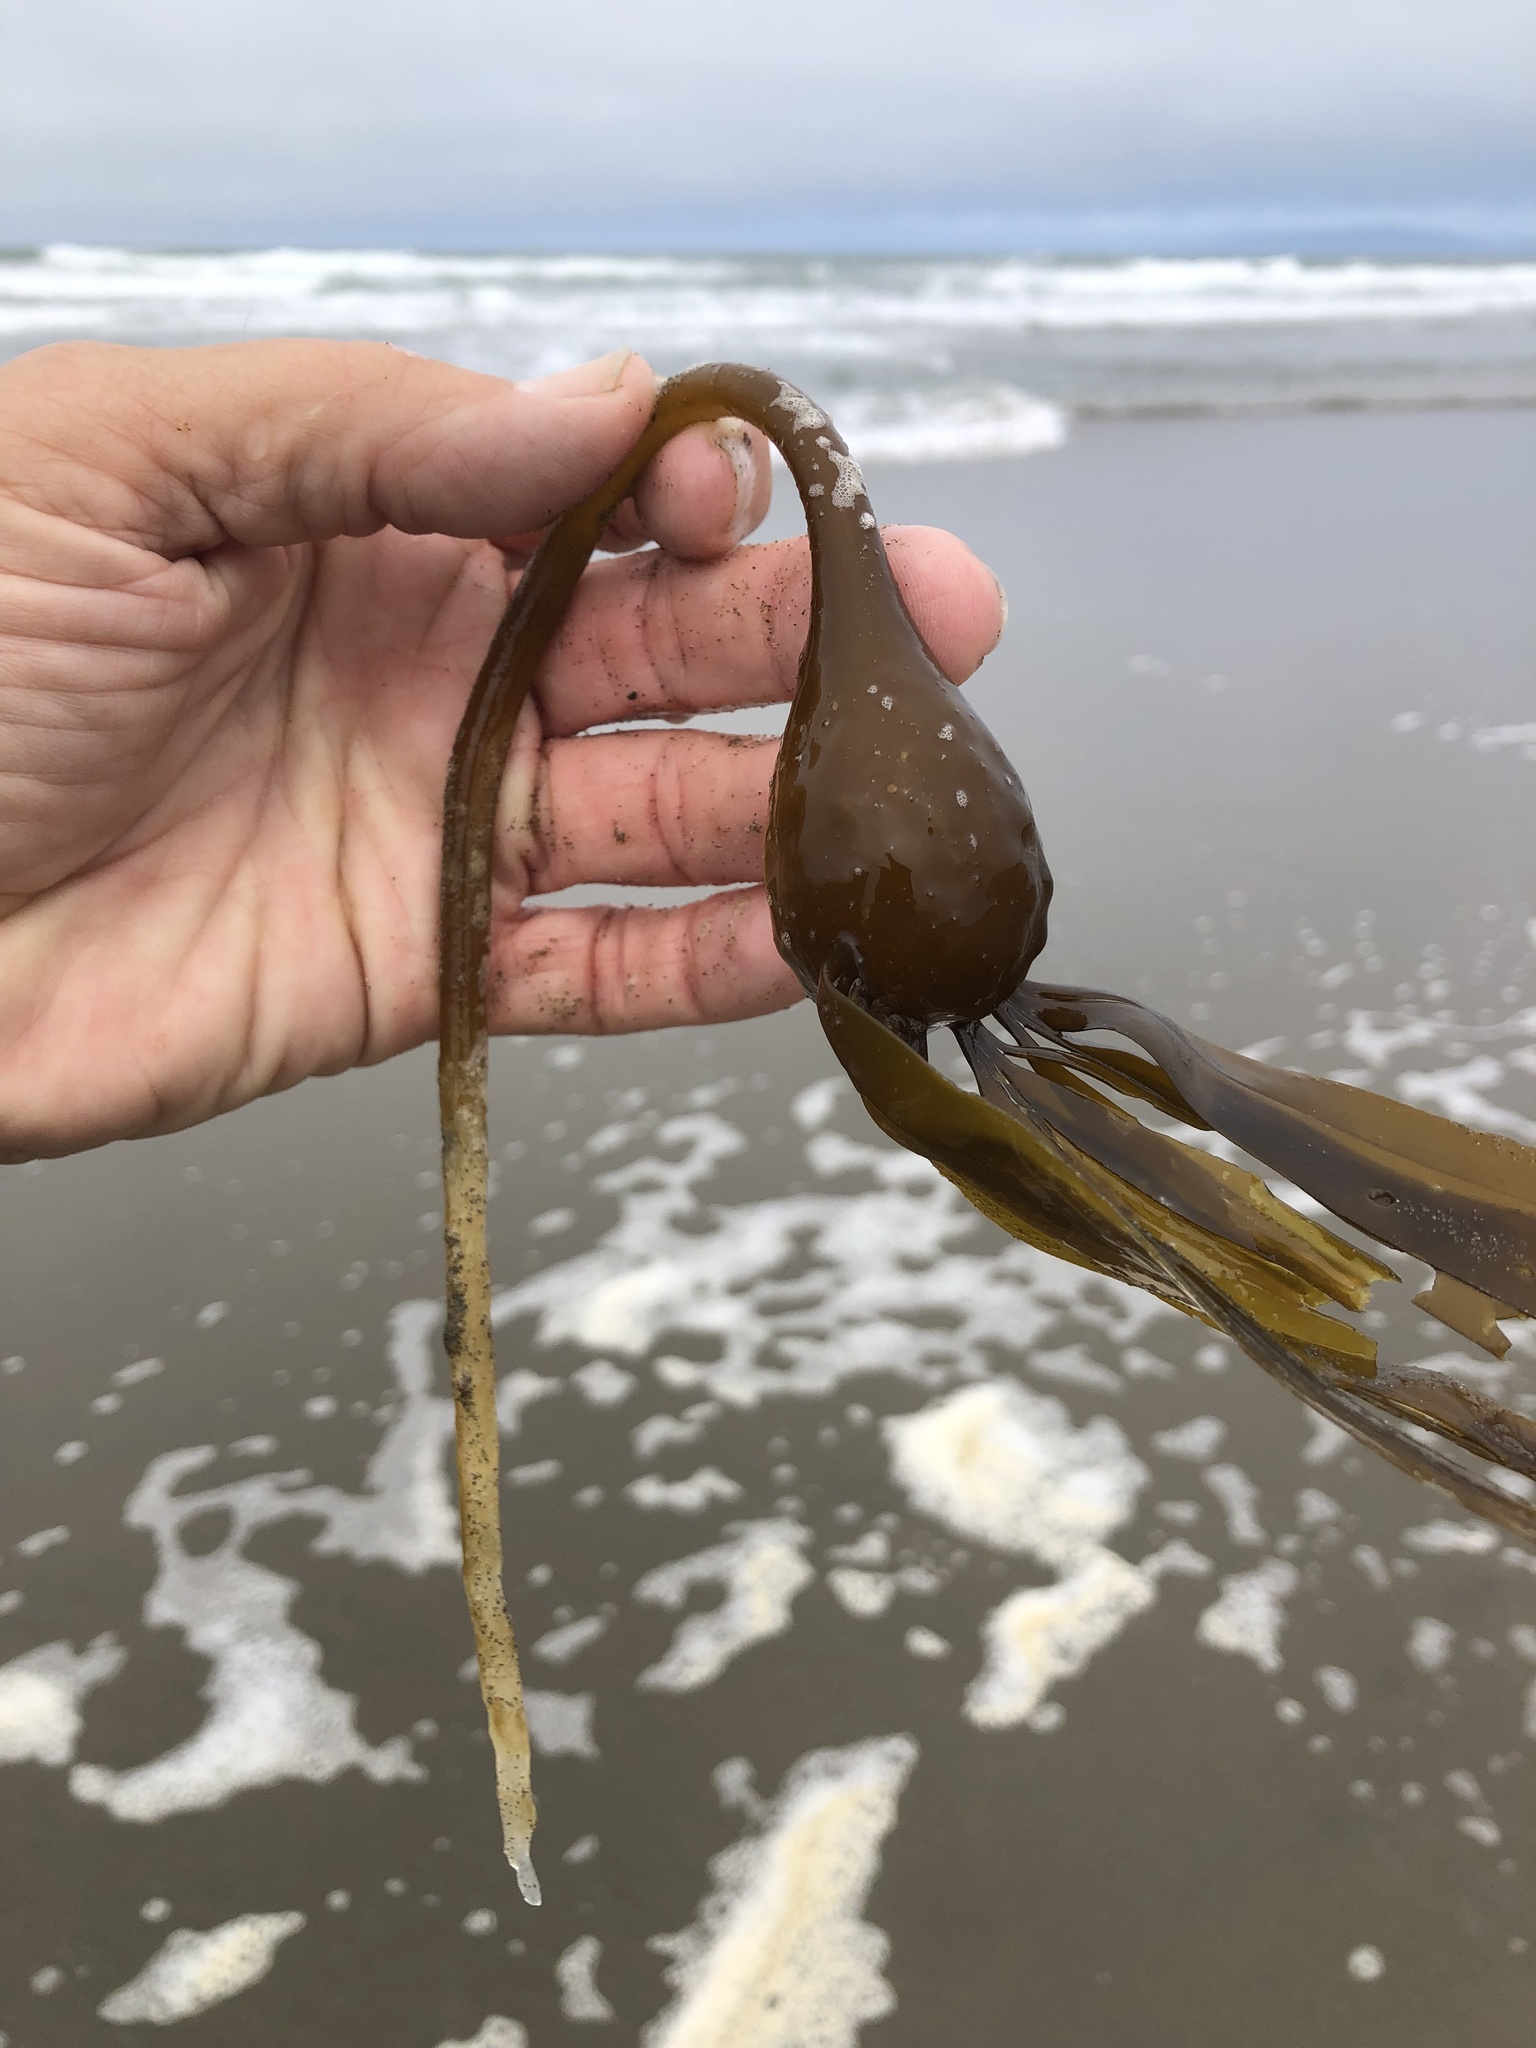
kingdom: Chromista
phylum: Ochrophyta
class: Phaeophyceae
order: Laminariales
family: Laminariaceae
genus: Nereocystis
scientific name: Nereocystis luetkeana
